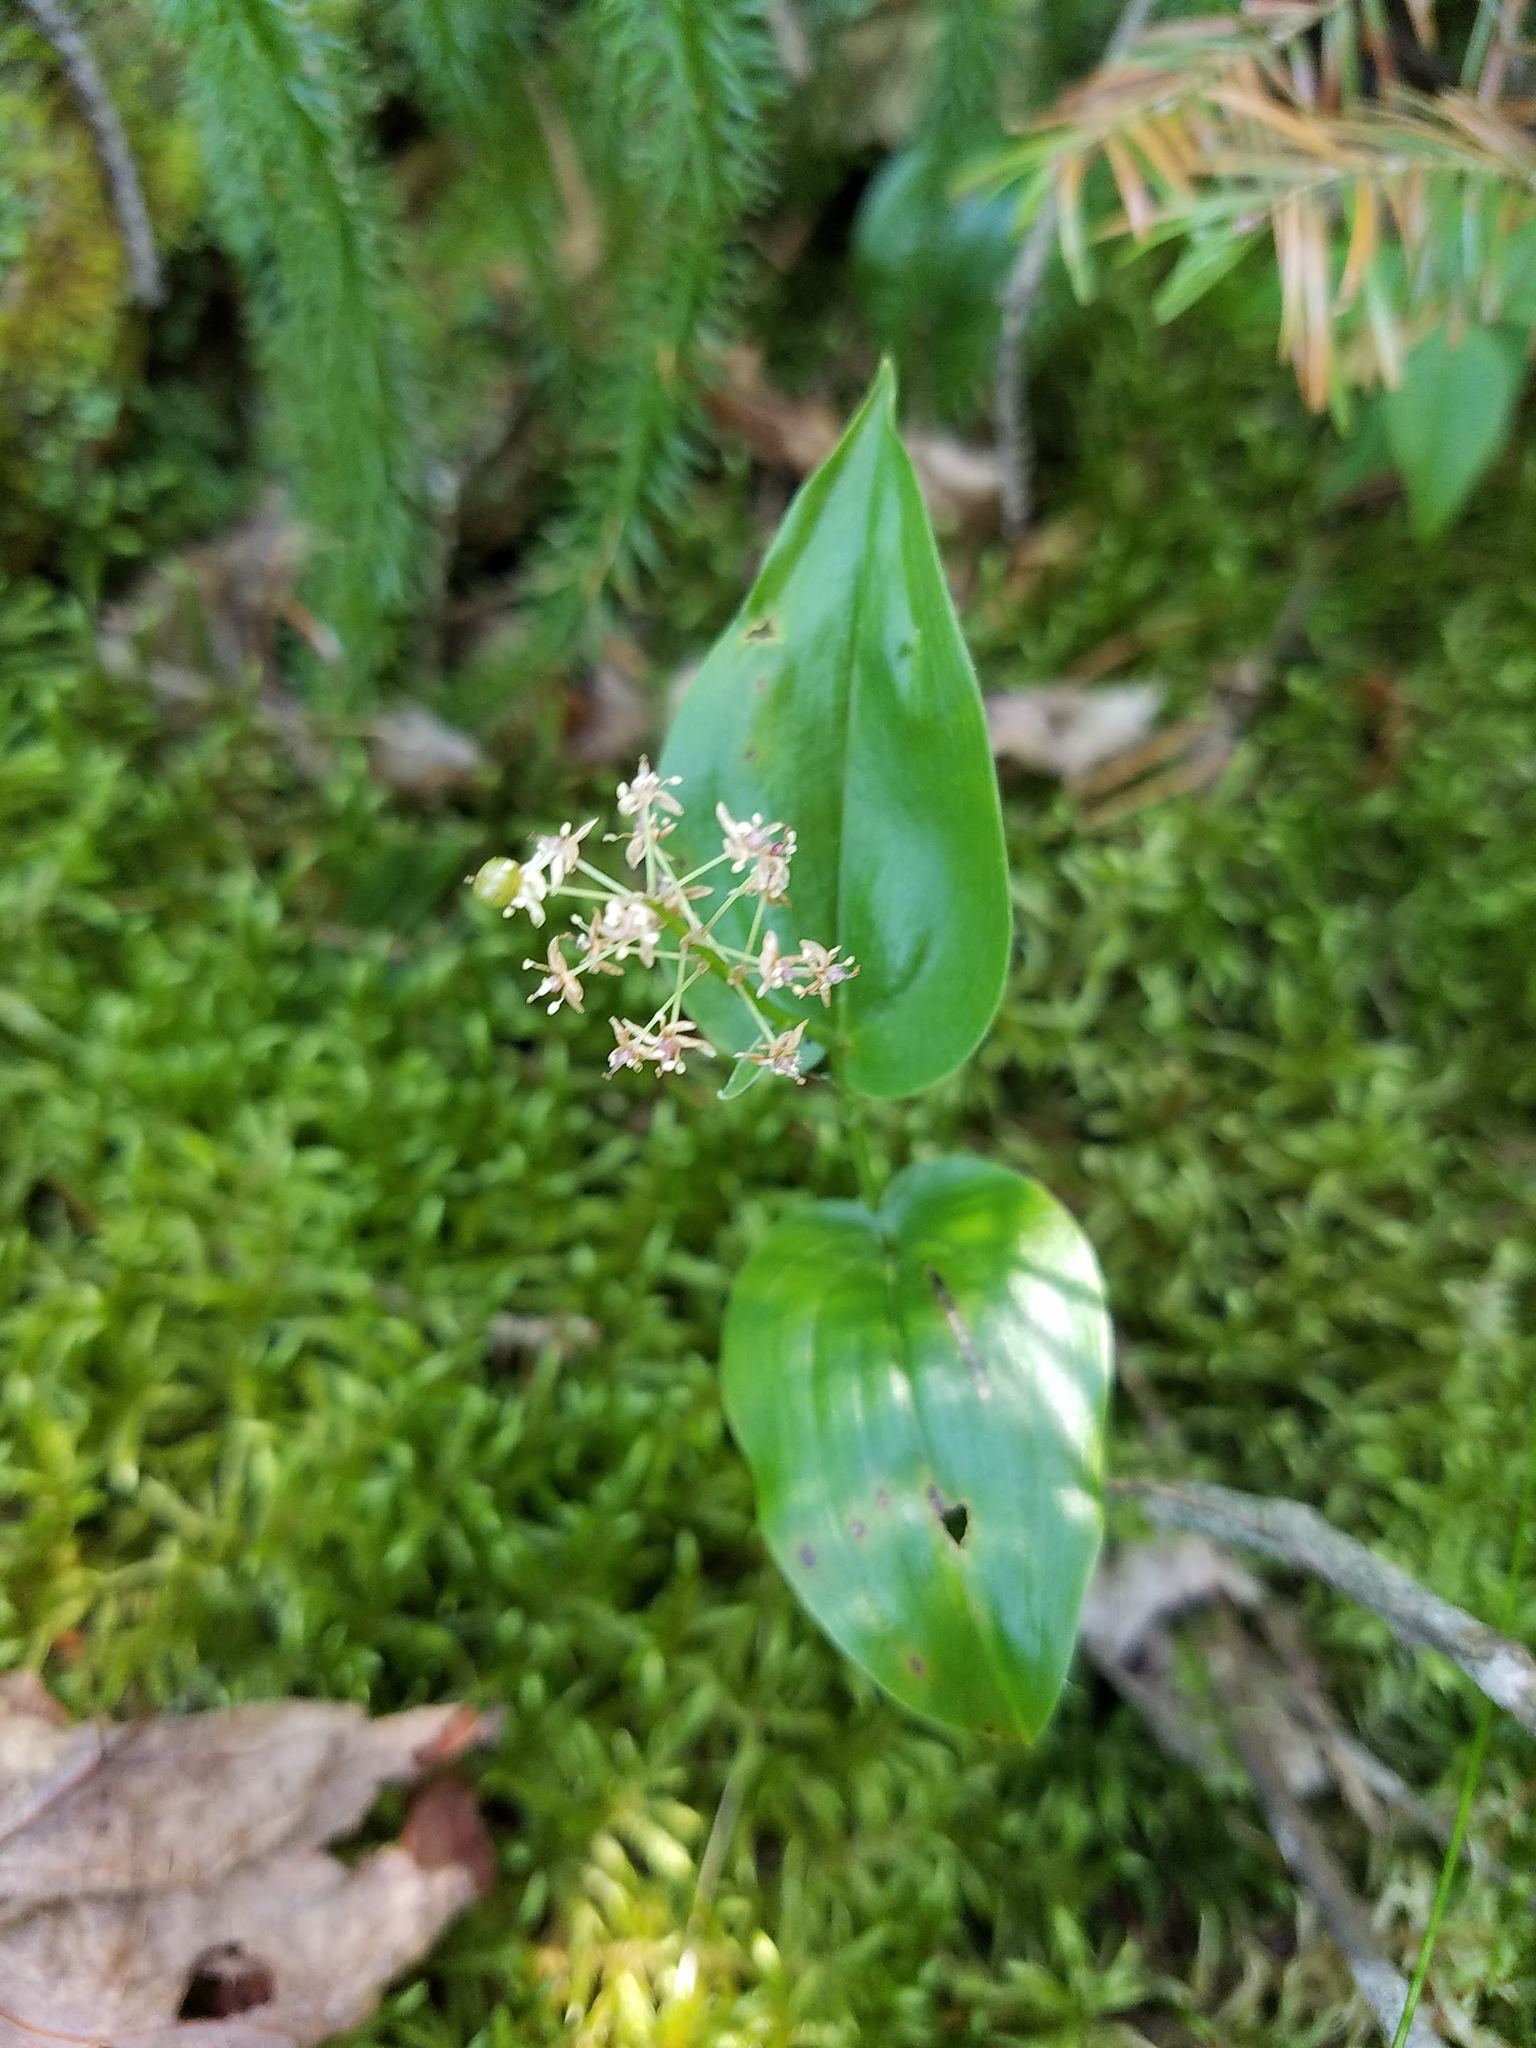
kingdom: Plantae
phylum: Tracheophyta
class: Liliopsida
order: Asparagales
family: Asparagaceae
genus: Maianthemum
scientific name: Maianthemum canadense
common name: False lily-of-the-valley
